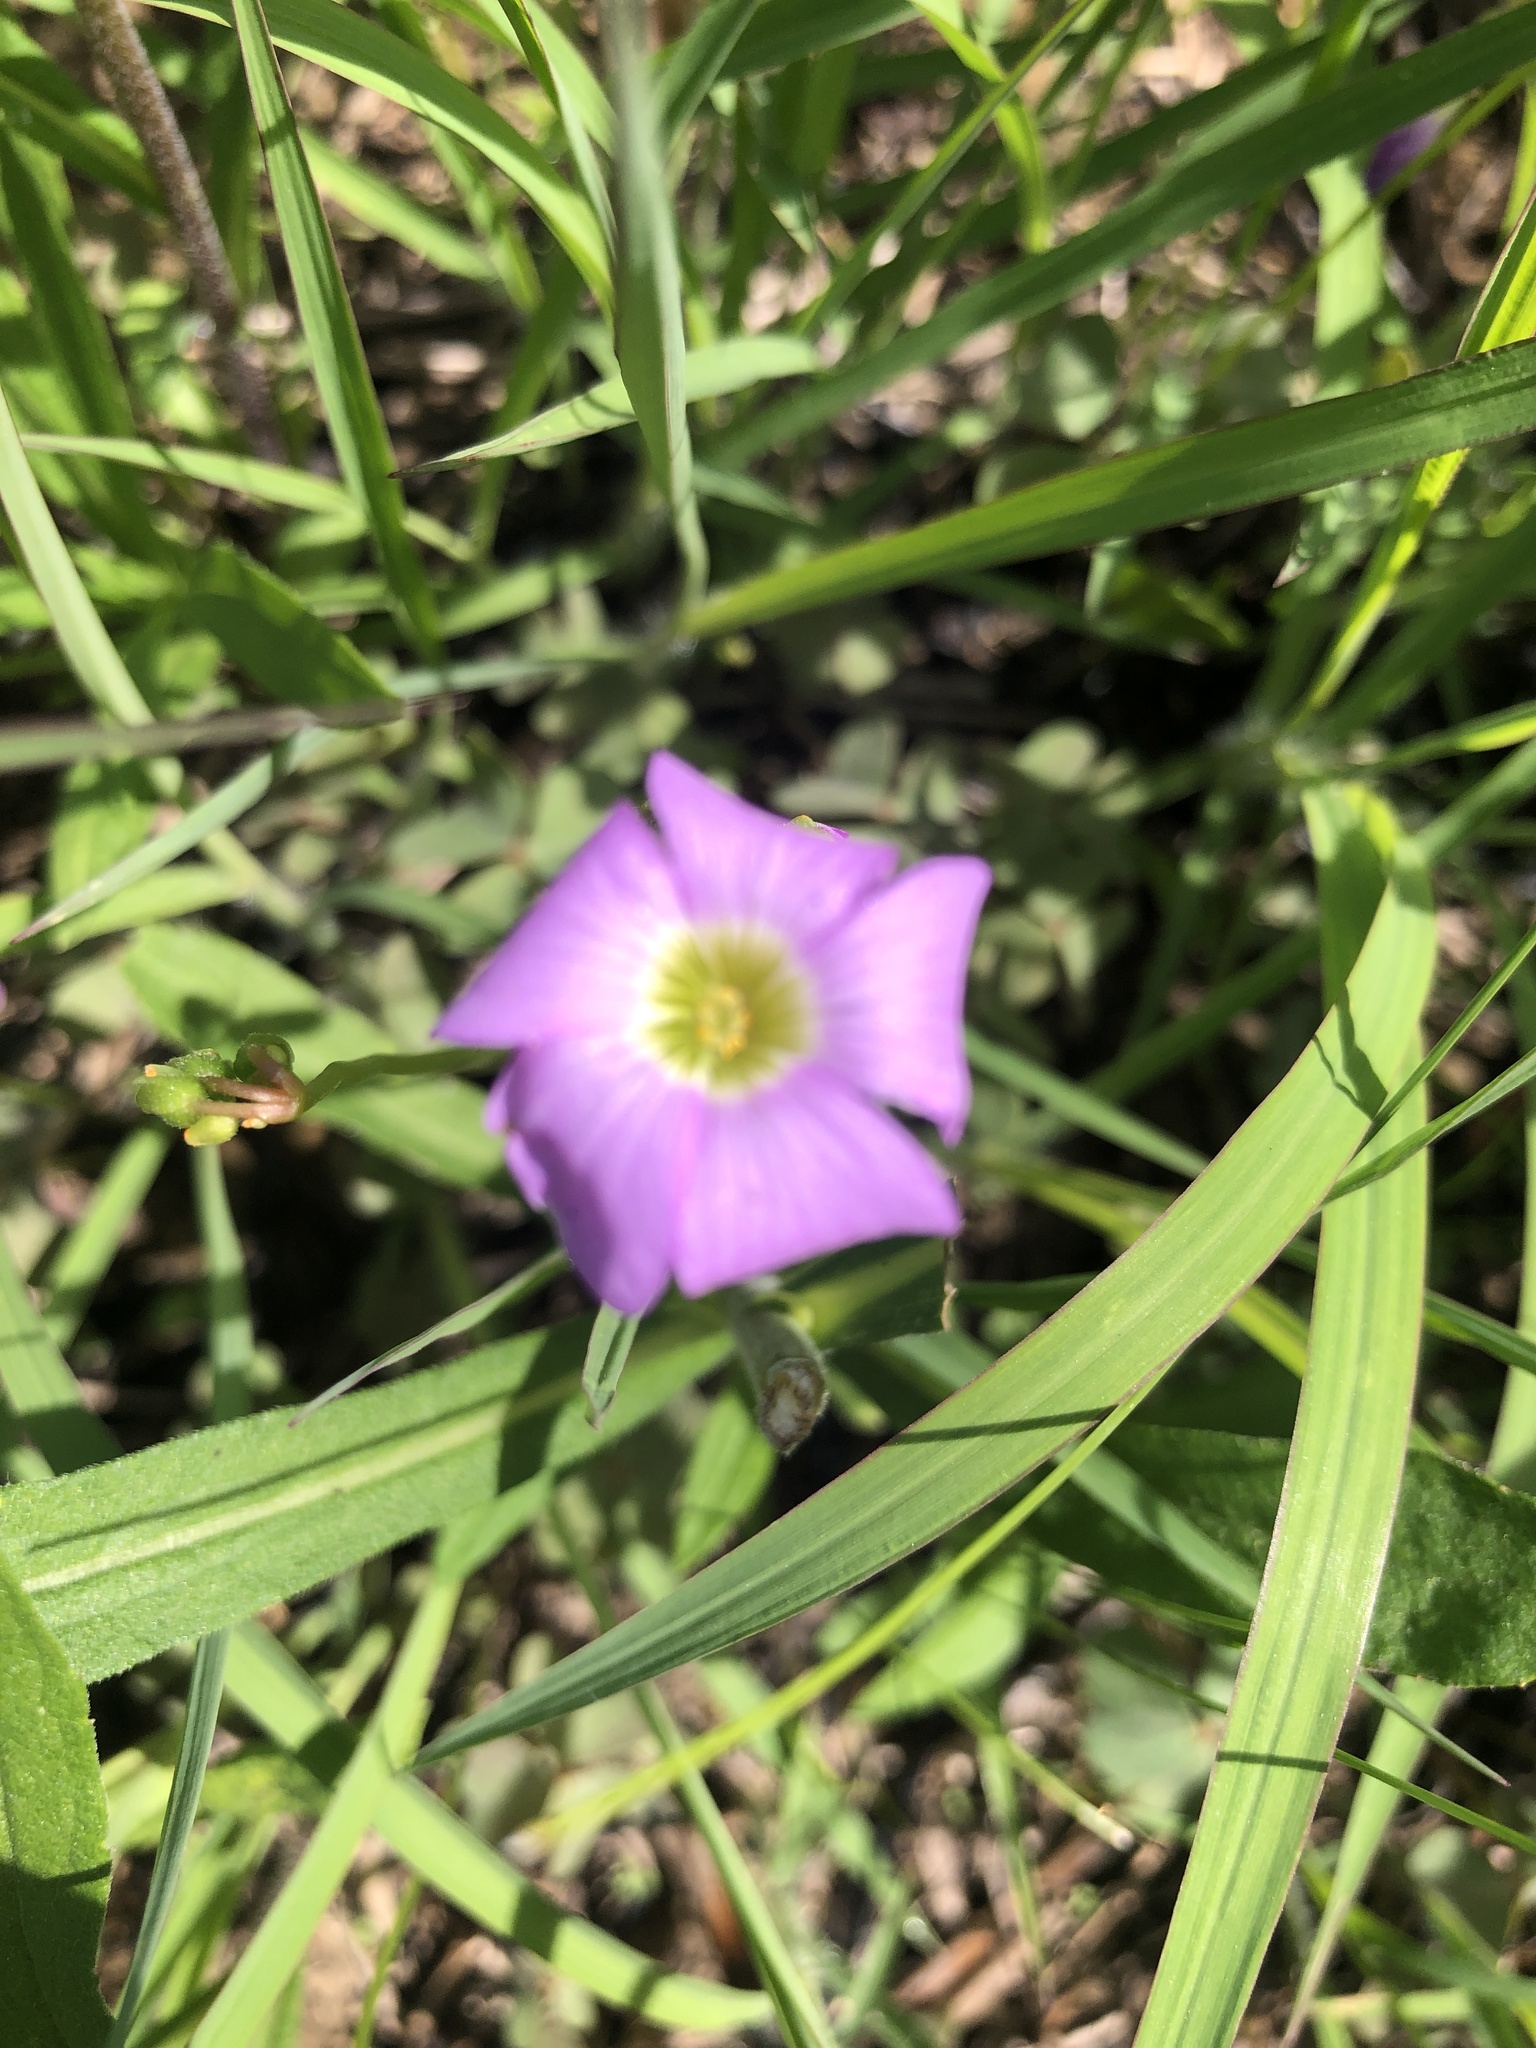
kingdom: Plantae
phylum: Tracheophyta
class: Magnoliopsida
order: Oxalidales
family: Oxalidaceae
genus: Oxalis
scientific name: Oxalis violacea
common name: Violet wood-sorrel
